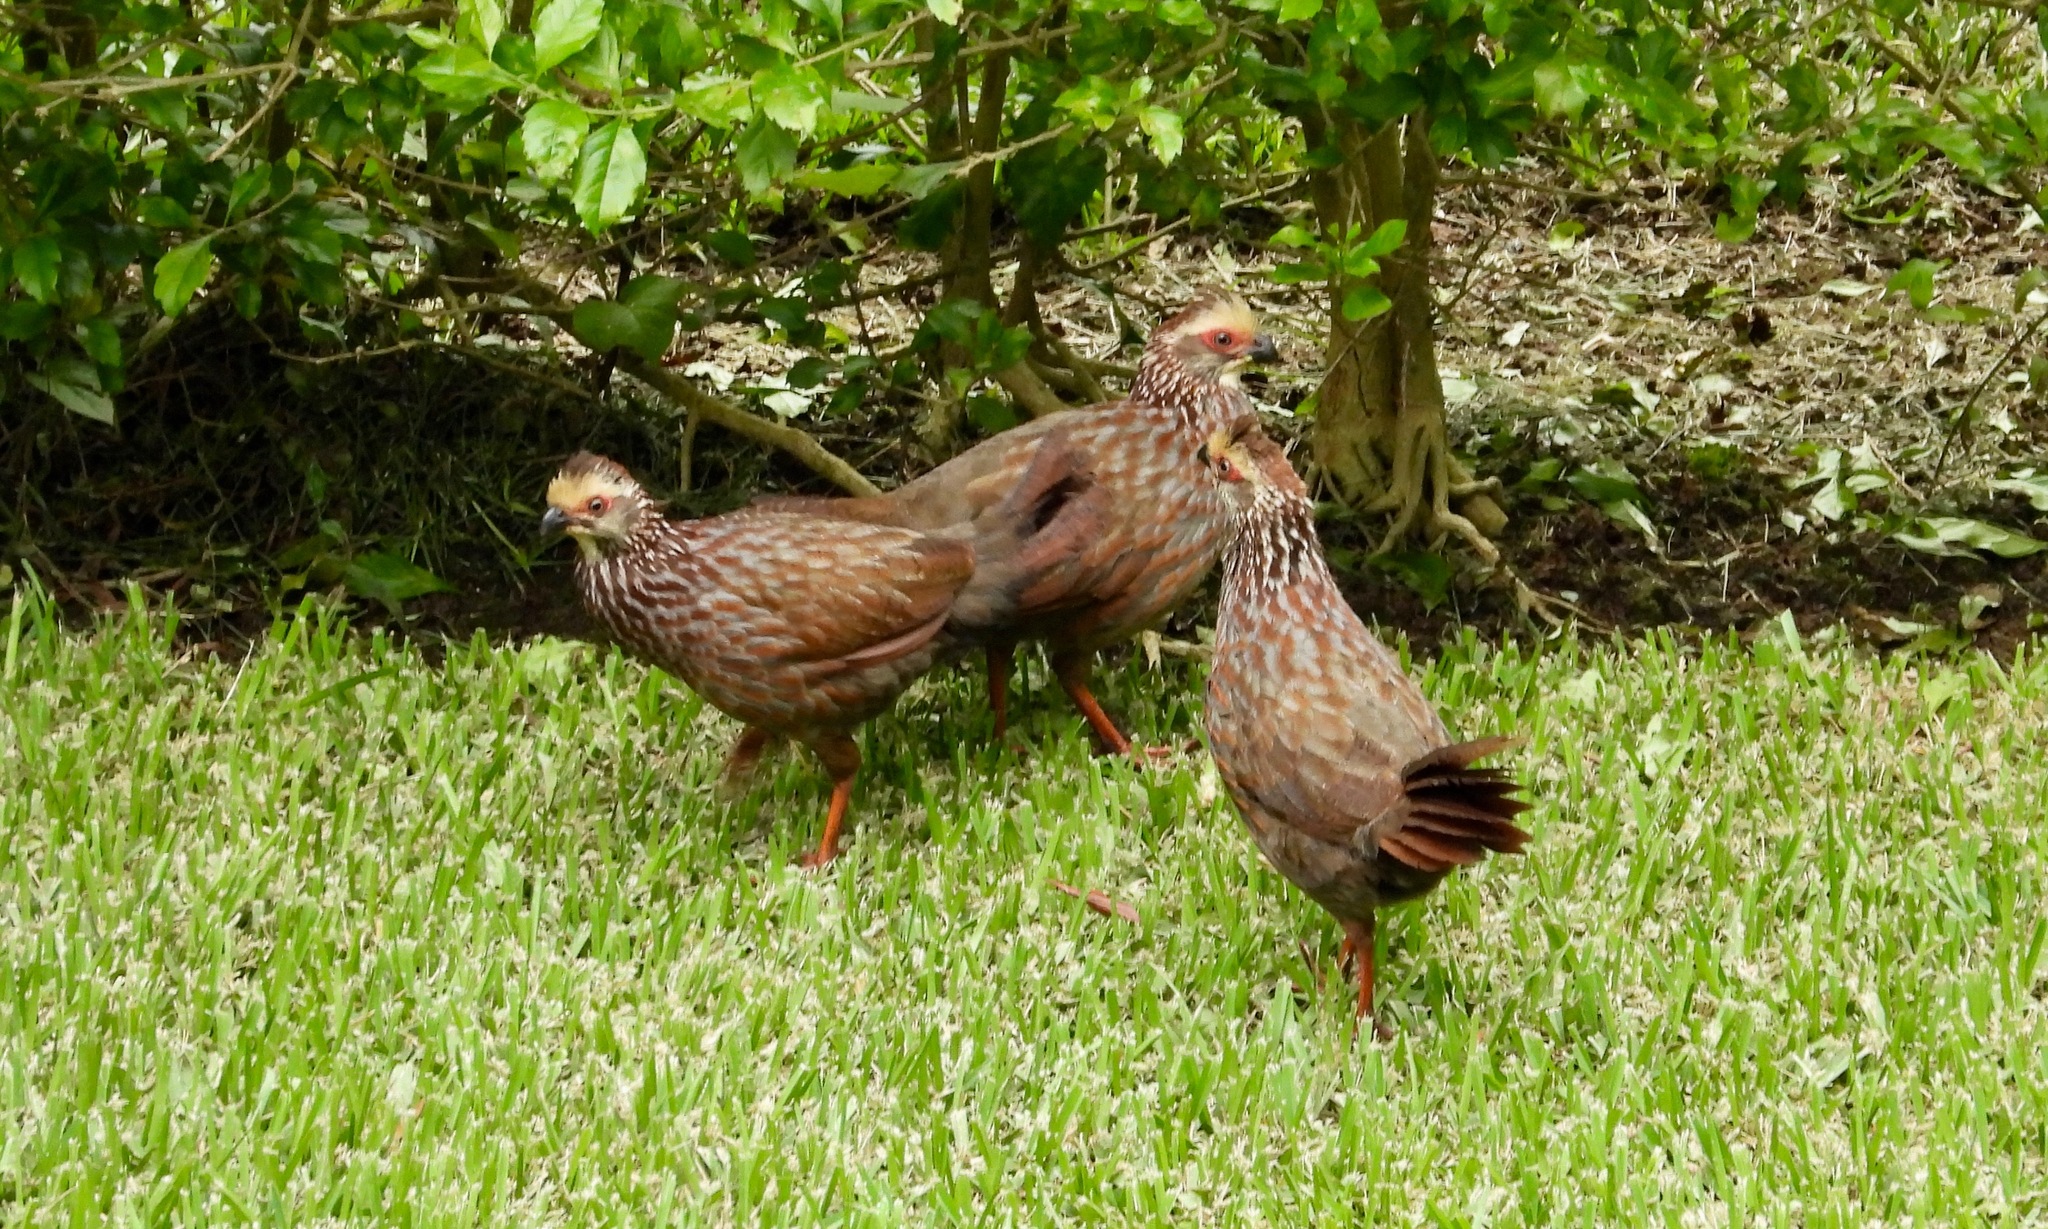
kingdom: Animalia
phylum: Chordata
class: Aves
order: Galliformes
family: Odontophoridae
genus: Dendrortyx
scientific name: Dendrortyx leucophrys
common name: Buffy-crowned wood-partridge
